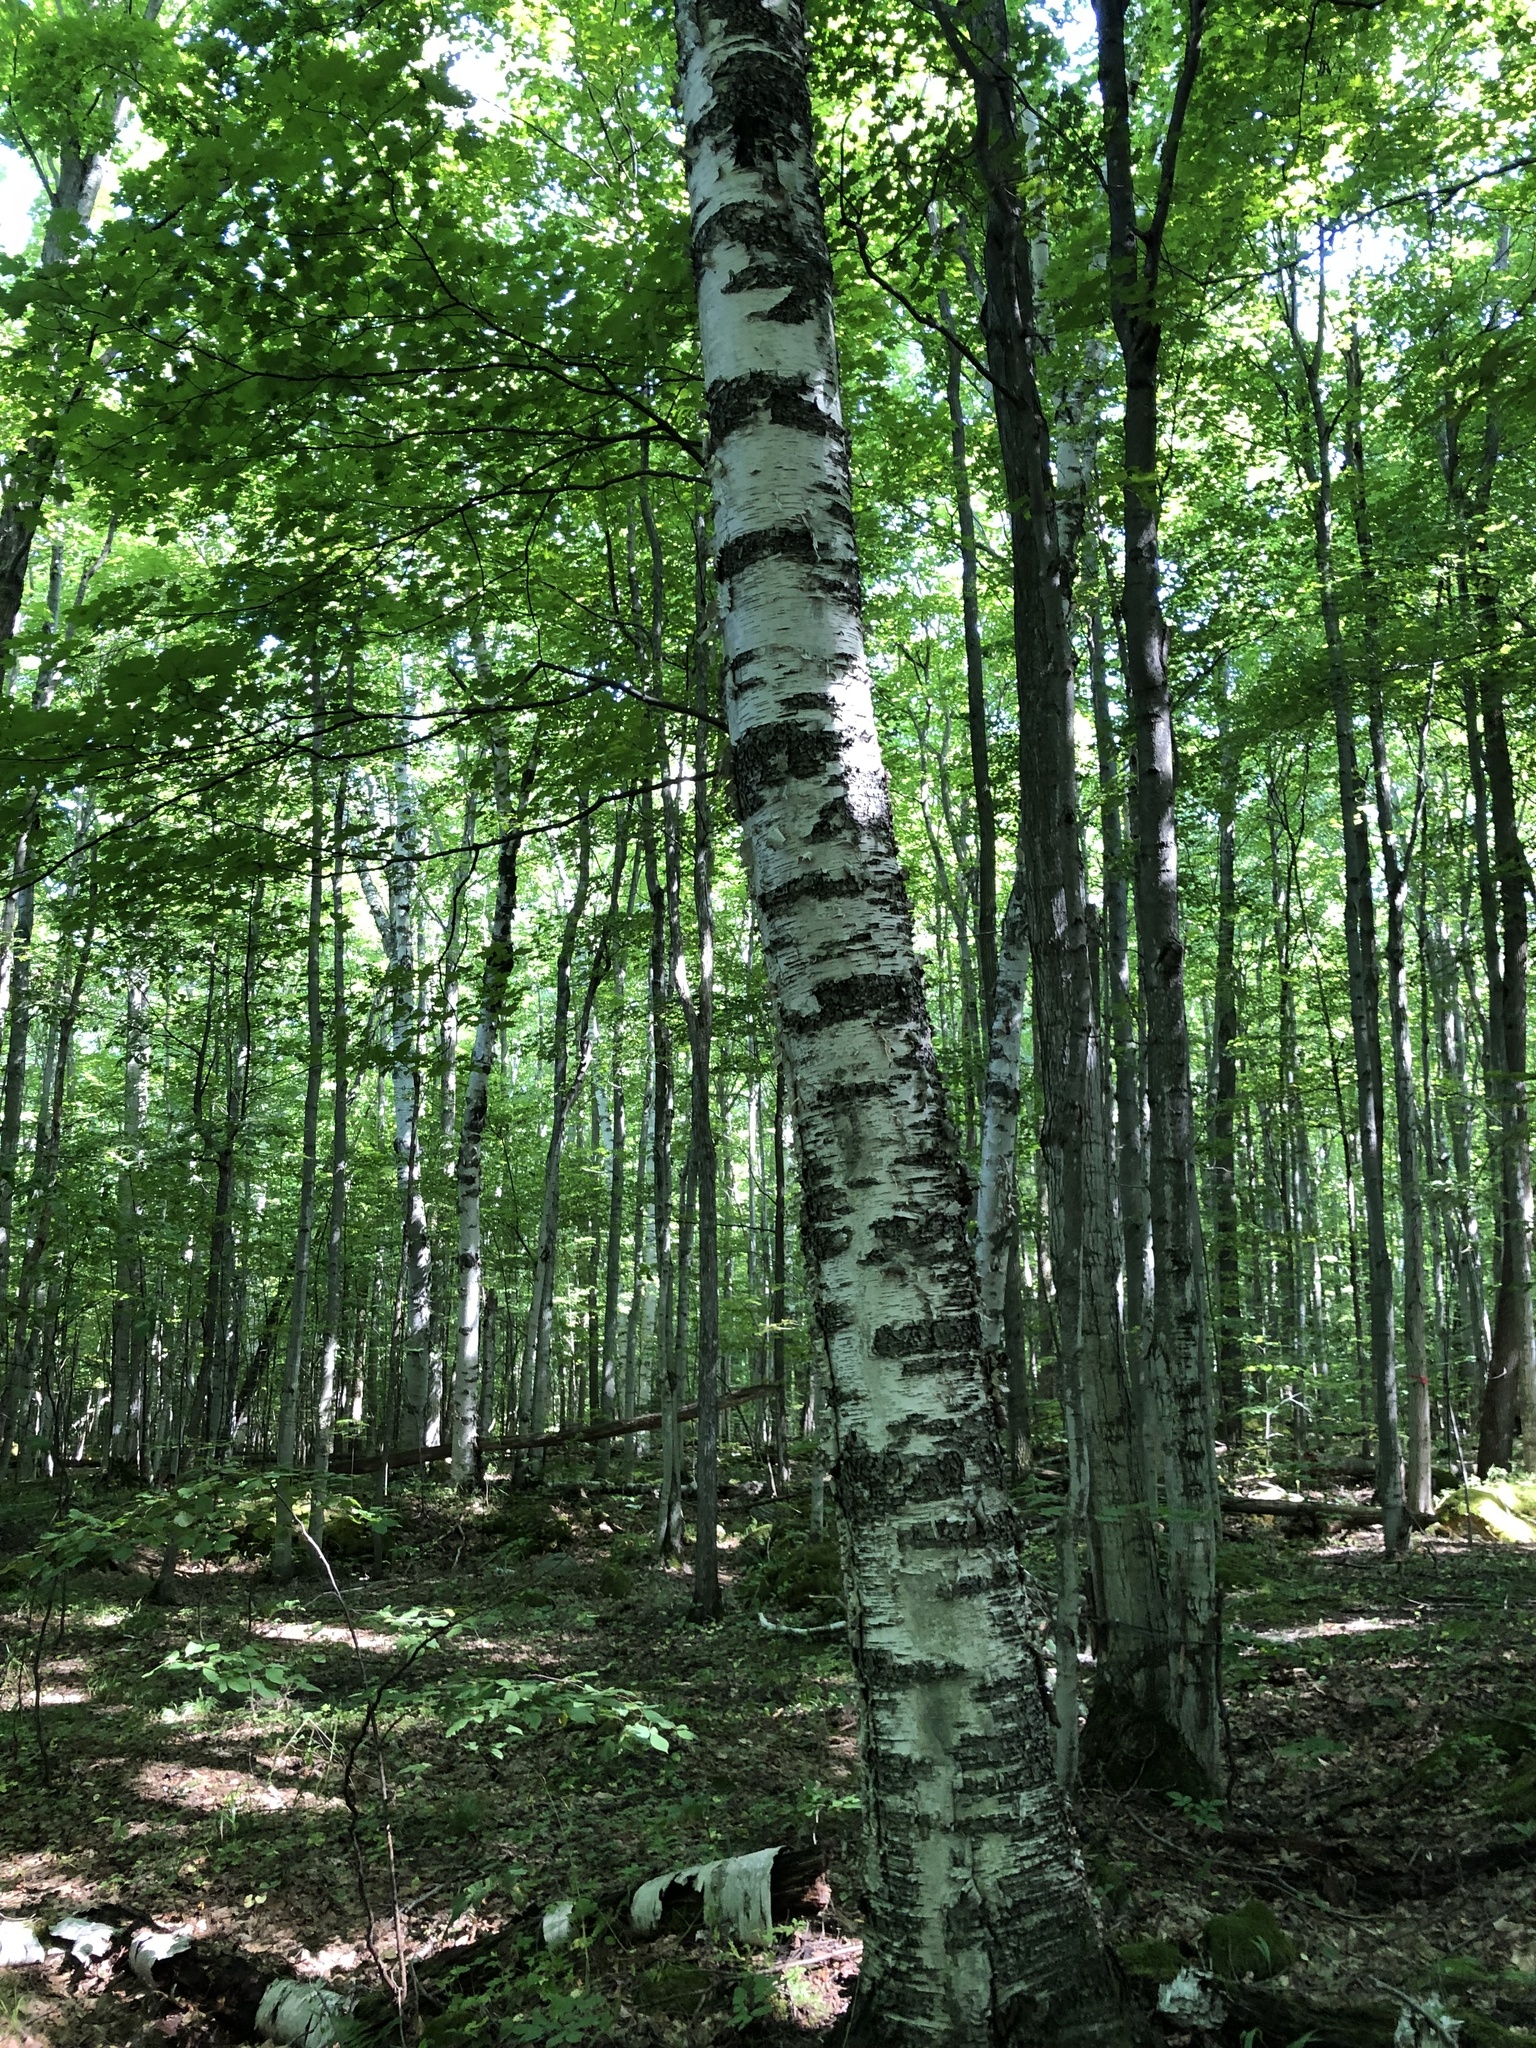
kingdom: Plantae
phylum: Tracheophyta
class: Magnoliopsida
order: Fagales
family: Betulaceae
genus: Betula
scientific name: Betula papyrifera
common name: Paper birch
